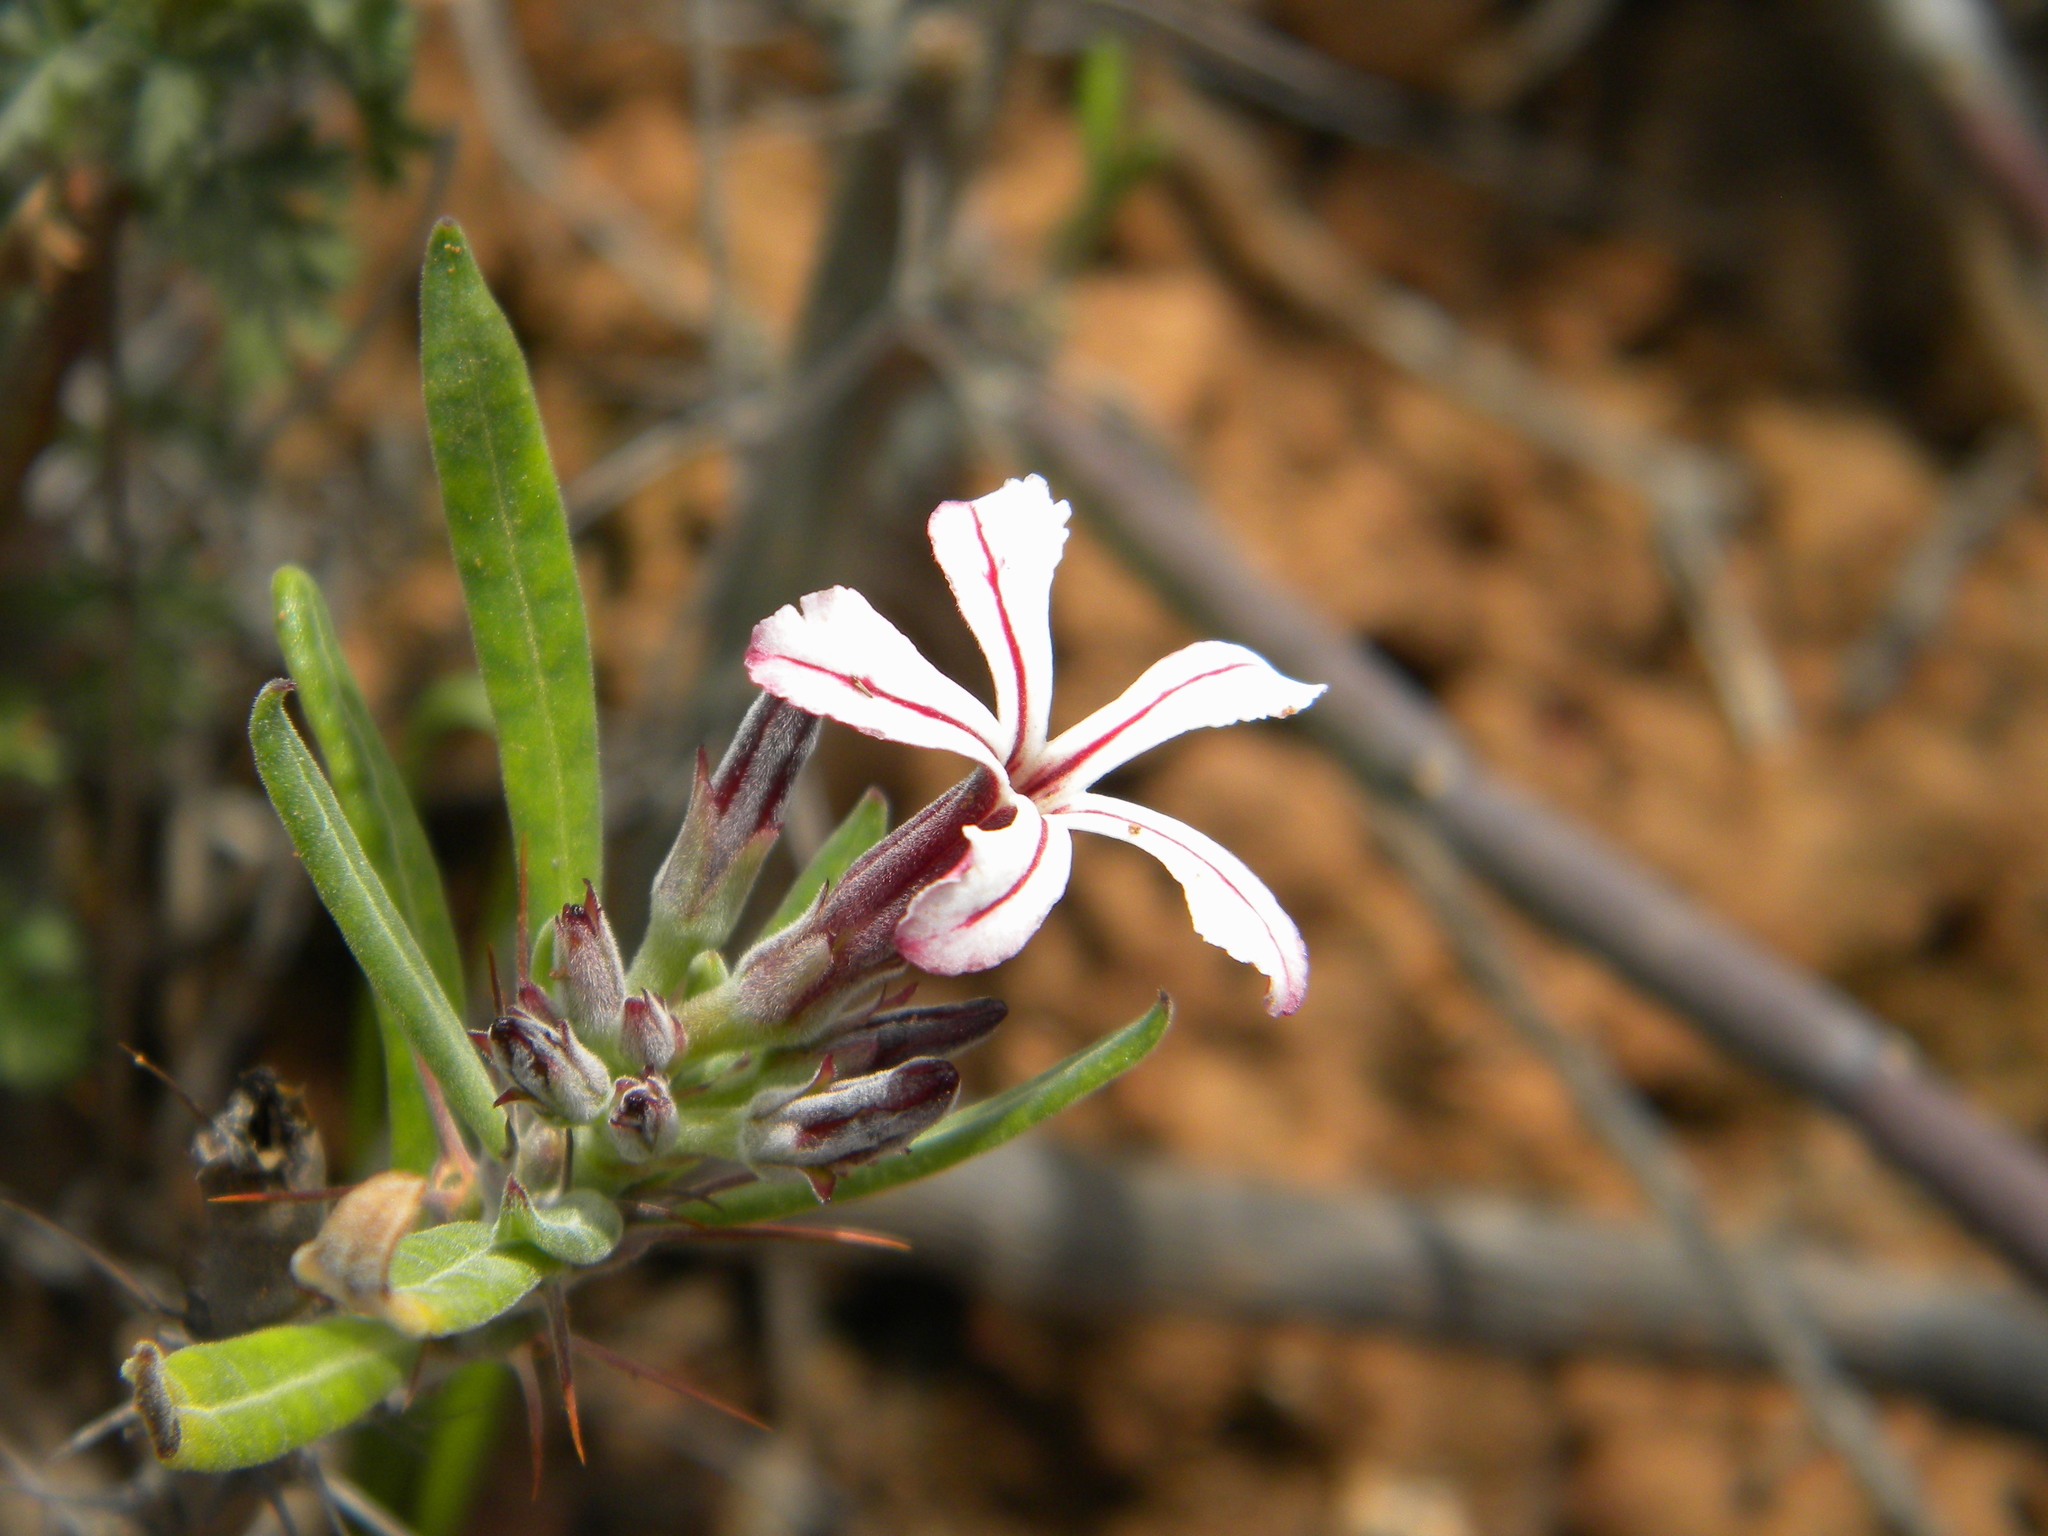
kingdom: Plantae
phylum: Tracheophyta
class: Magnoliopsida
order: Gentianales
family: Apocynaceae
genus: Pachypodium
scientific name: Pachypodium succulentum
